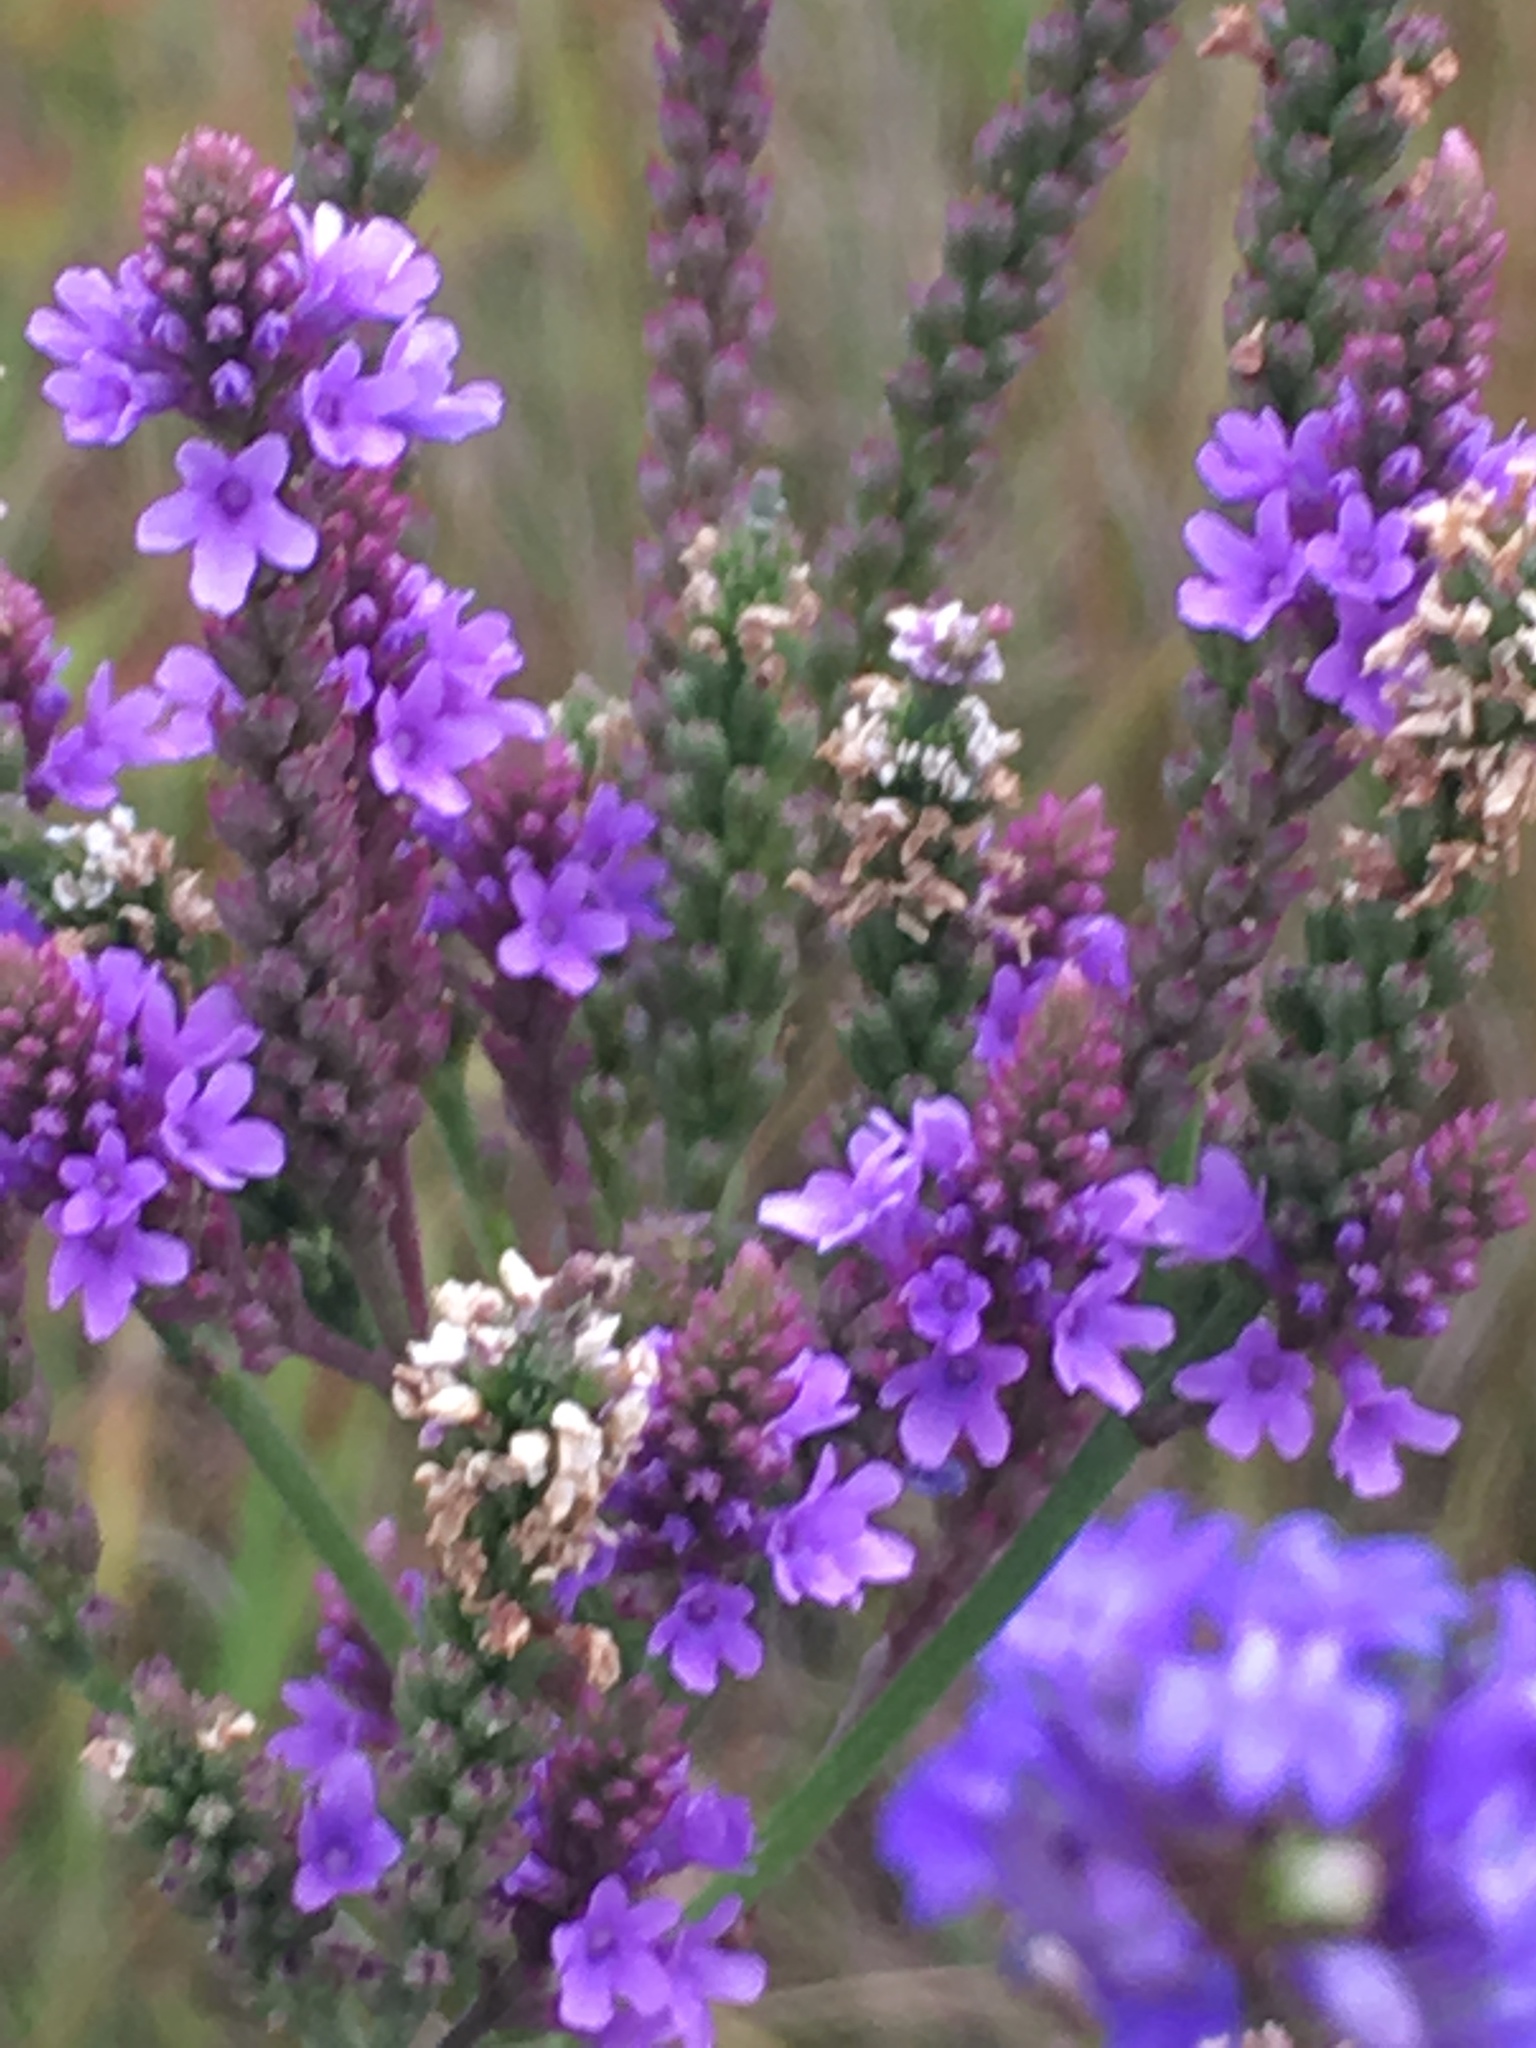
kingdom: Plantae
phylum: Tracheophyta
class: Magnoliopsida
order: Lamiales
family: Verbenaceae
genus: Verbena
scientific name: Verbena hastata
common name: American blue vervain
